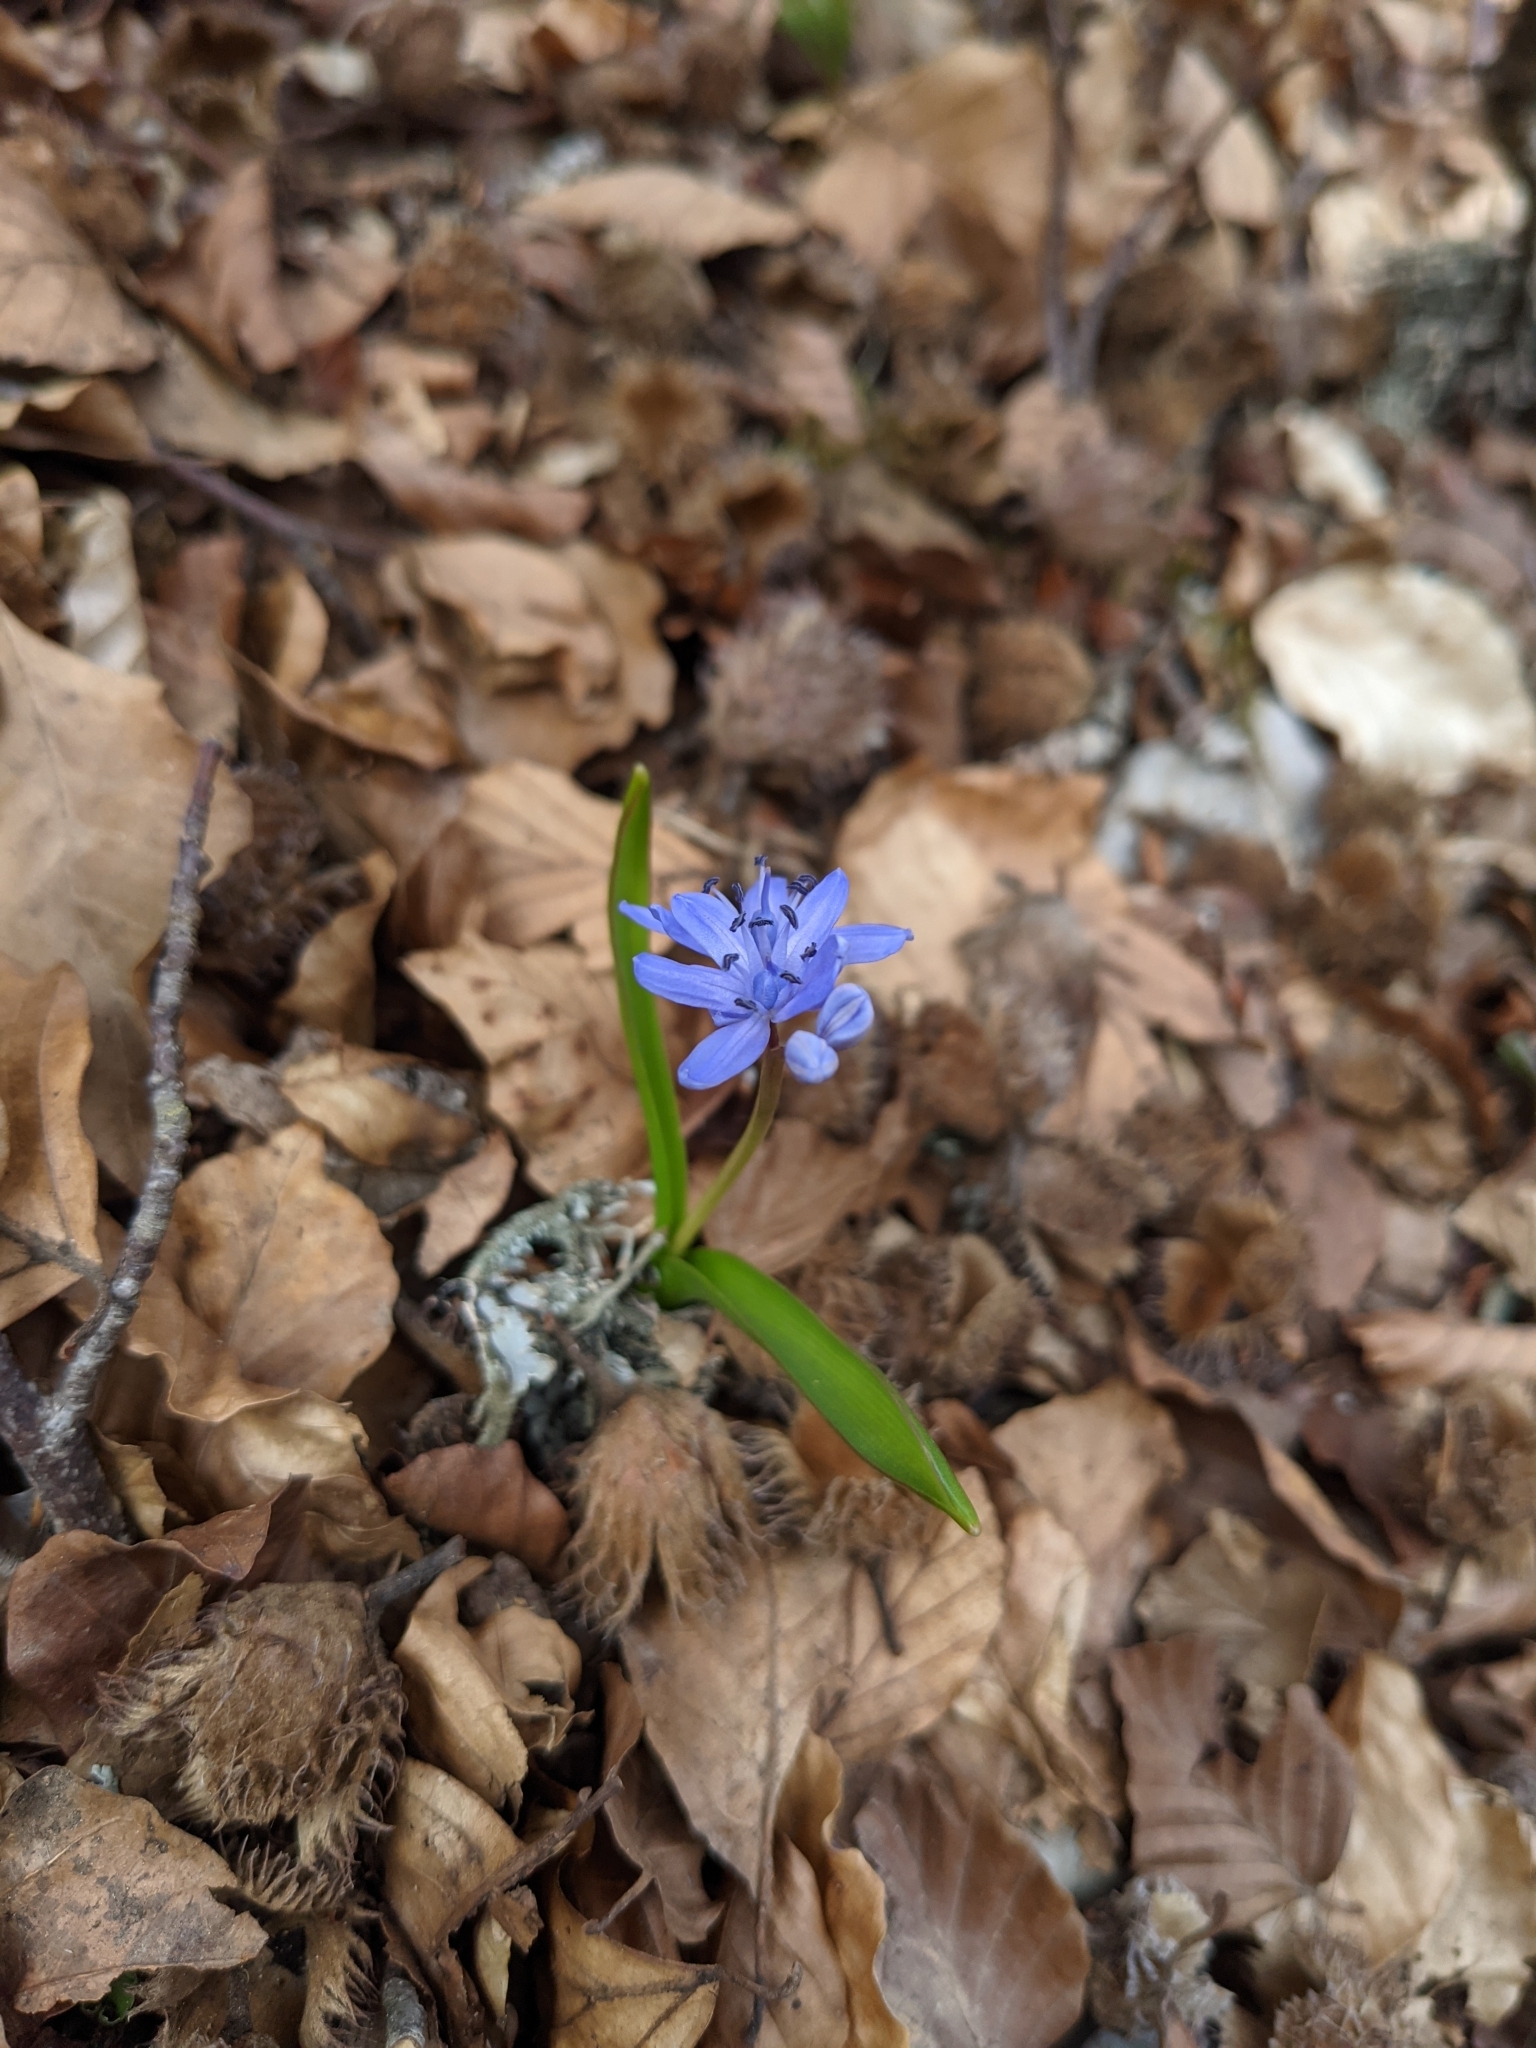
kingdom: Plantae
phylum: Tracheophyta
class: Liliopsida
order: Asparagales
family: Asparagaceae
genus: Scilla
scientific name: Scilla bifolia
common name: Alpine squill
